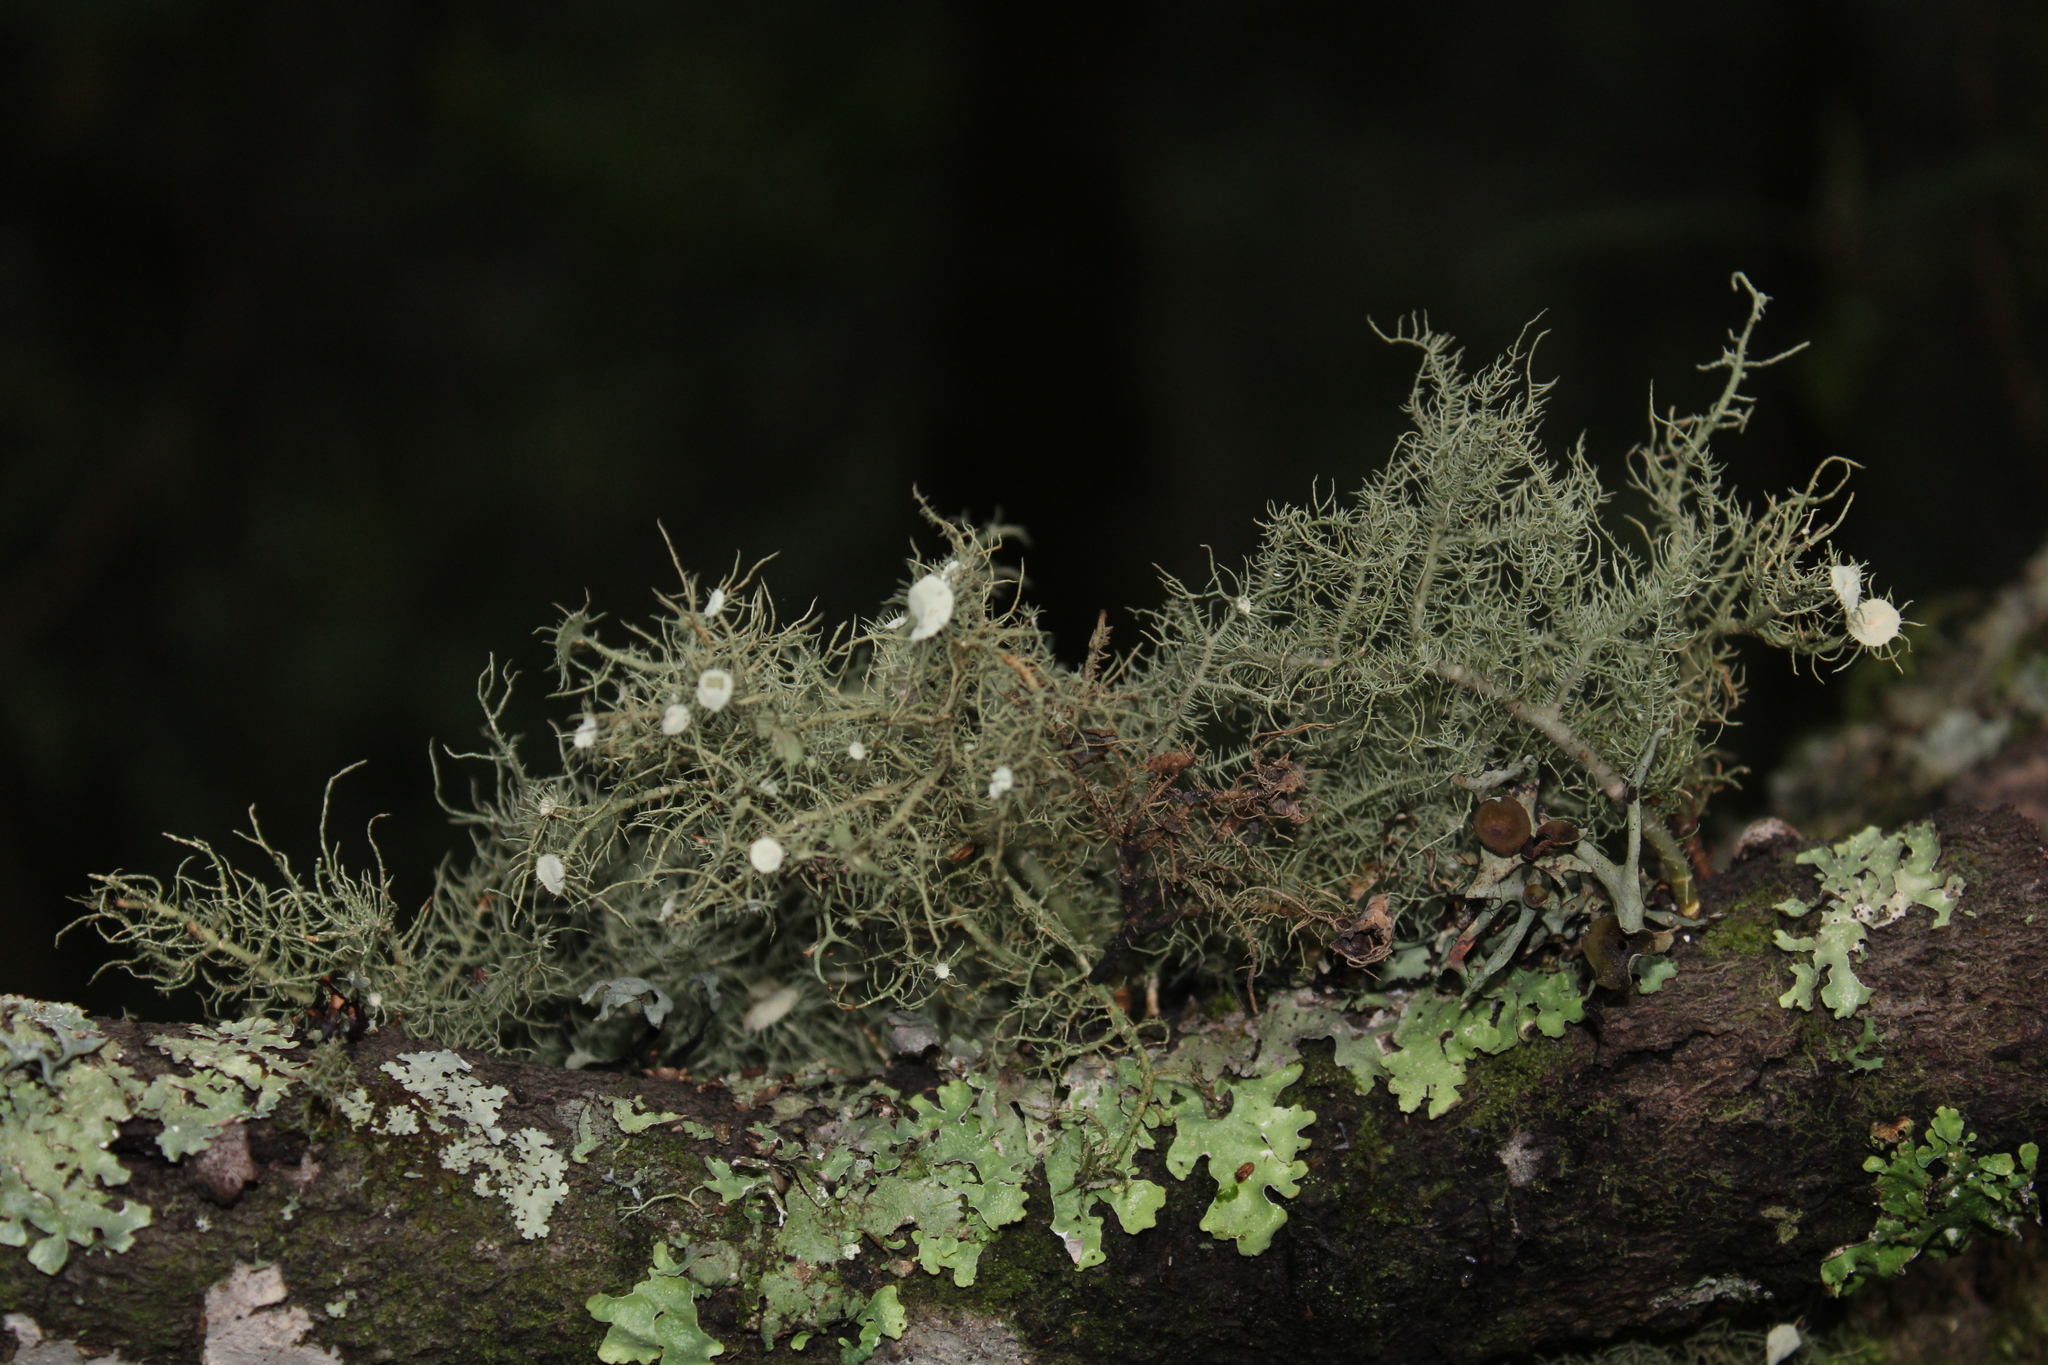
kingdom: Fungi
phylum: Ascomycota
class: Lecanoromycetes
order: Lecanorales
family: Parmeliaceae
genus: Usnea
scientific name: Usnea intermedia
